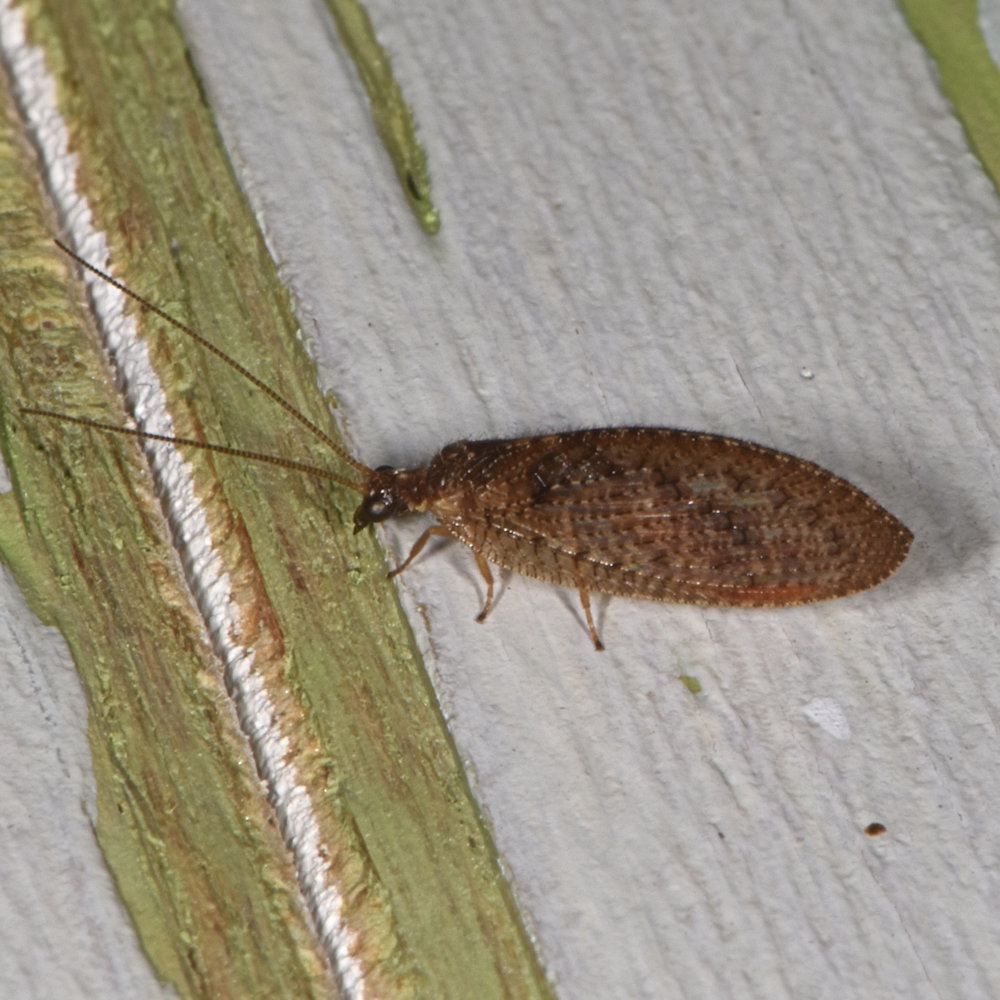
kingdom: Animalia
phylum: Arthropoda
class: Insecta
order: Neuroptera
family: Hemerobiidae
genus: Hemerobius
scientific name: Hemerobius stigma
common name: Brown pine lacewing
